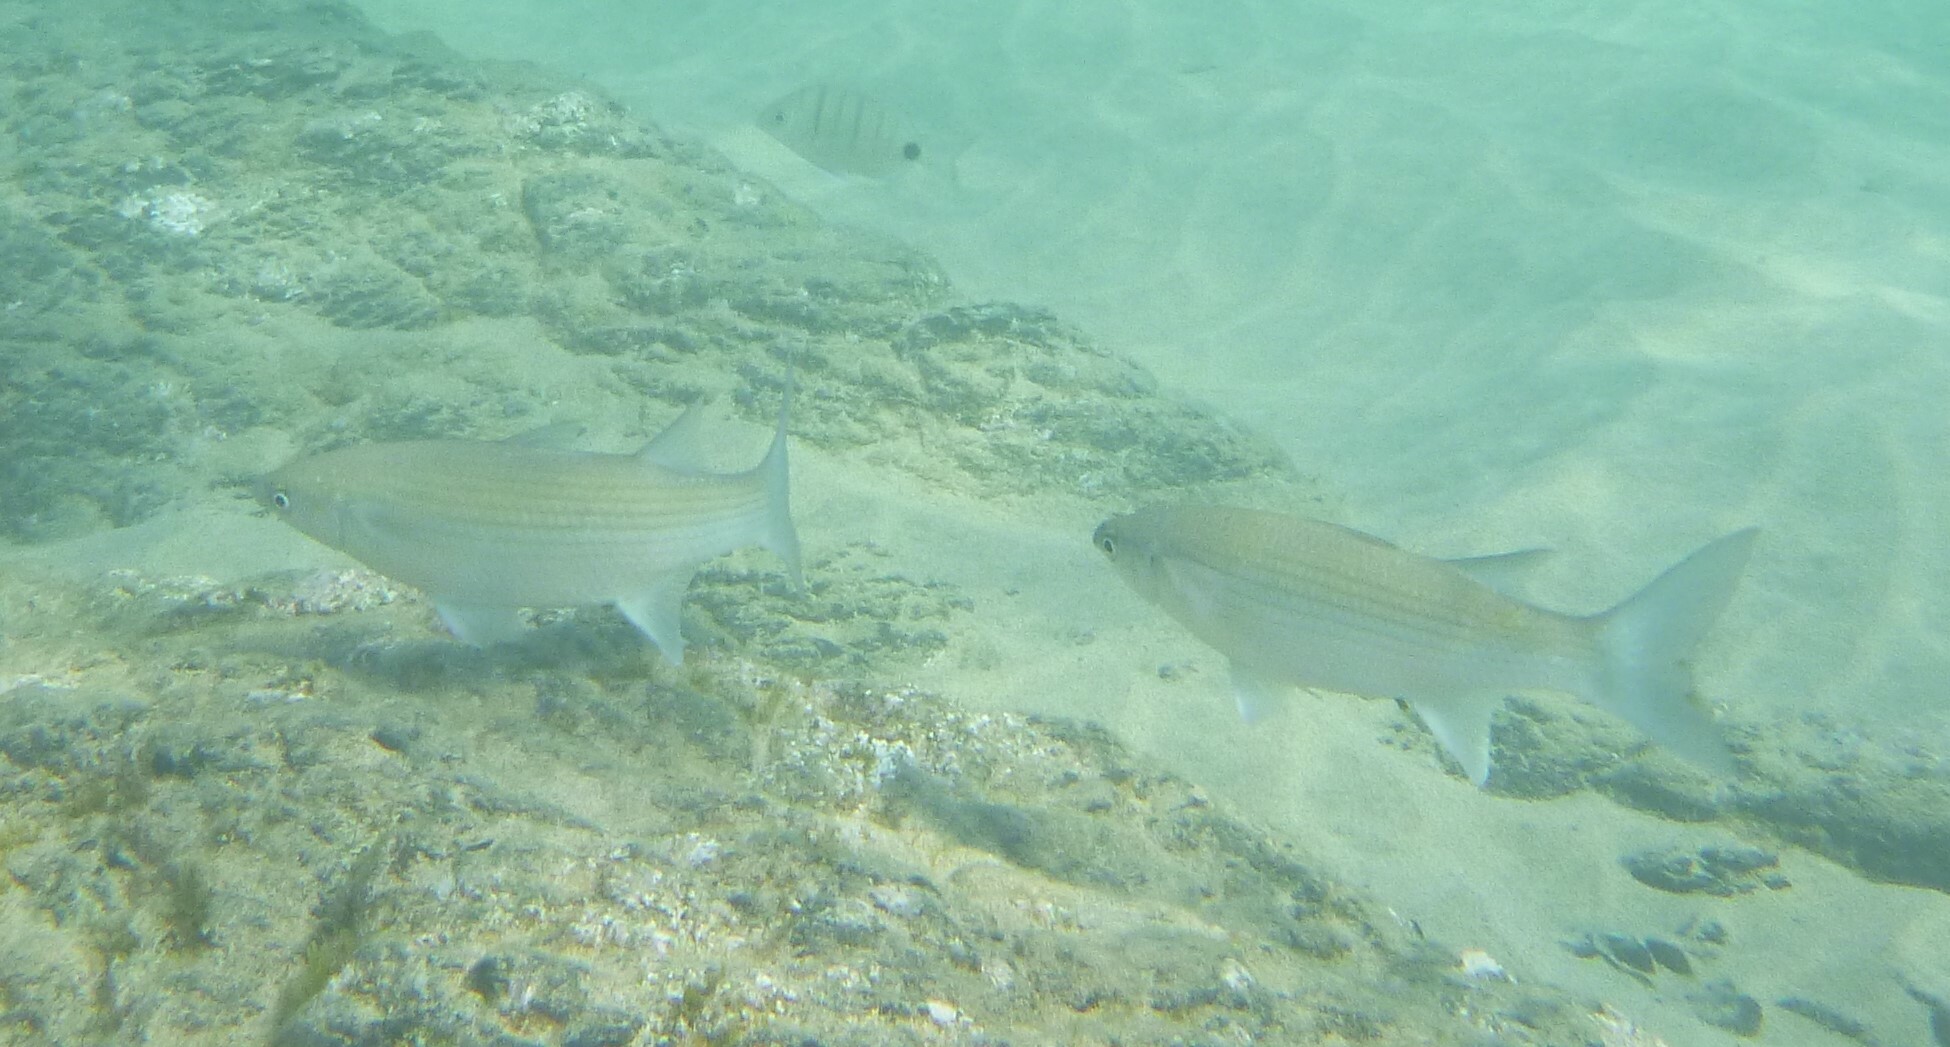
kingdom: Animalia
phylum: Chordata
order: Mugiliformes
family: Mugilidae
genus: Chelon
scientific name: Chelon labrosus
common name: Thick-lipped mullet
